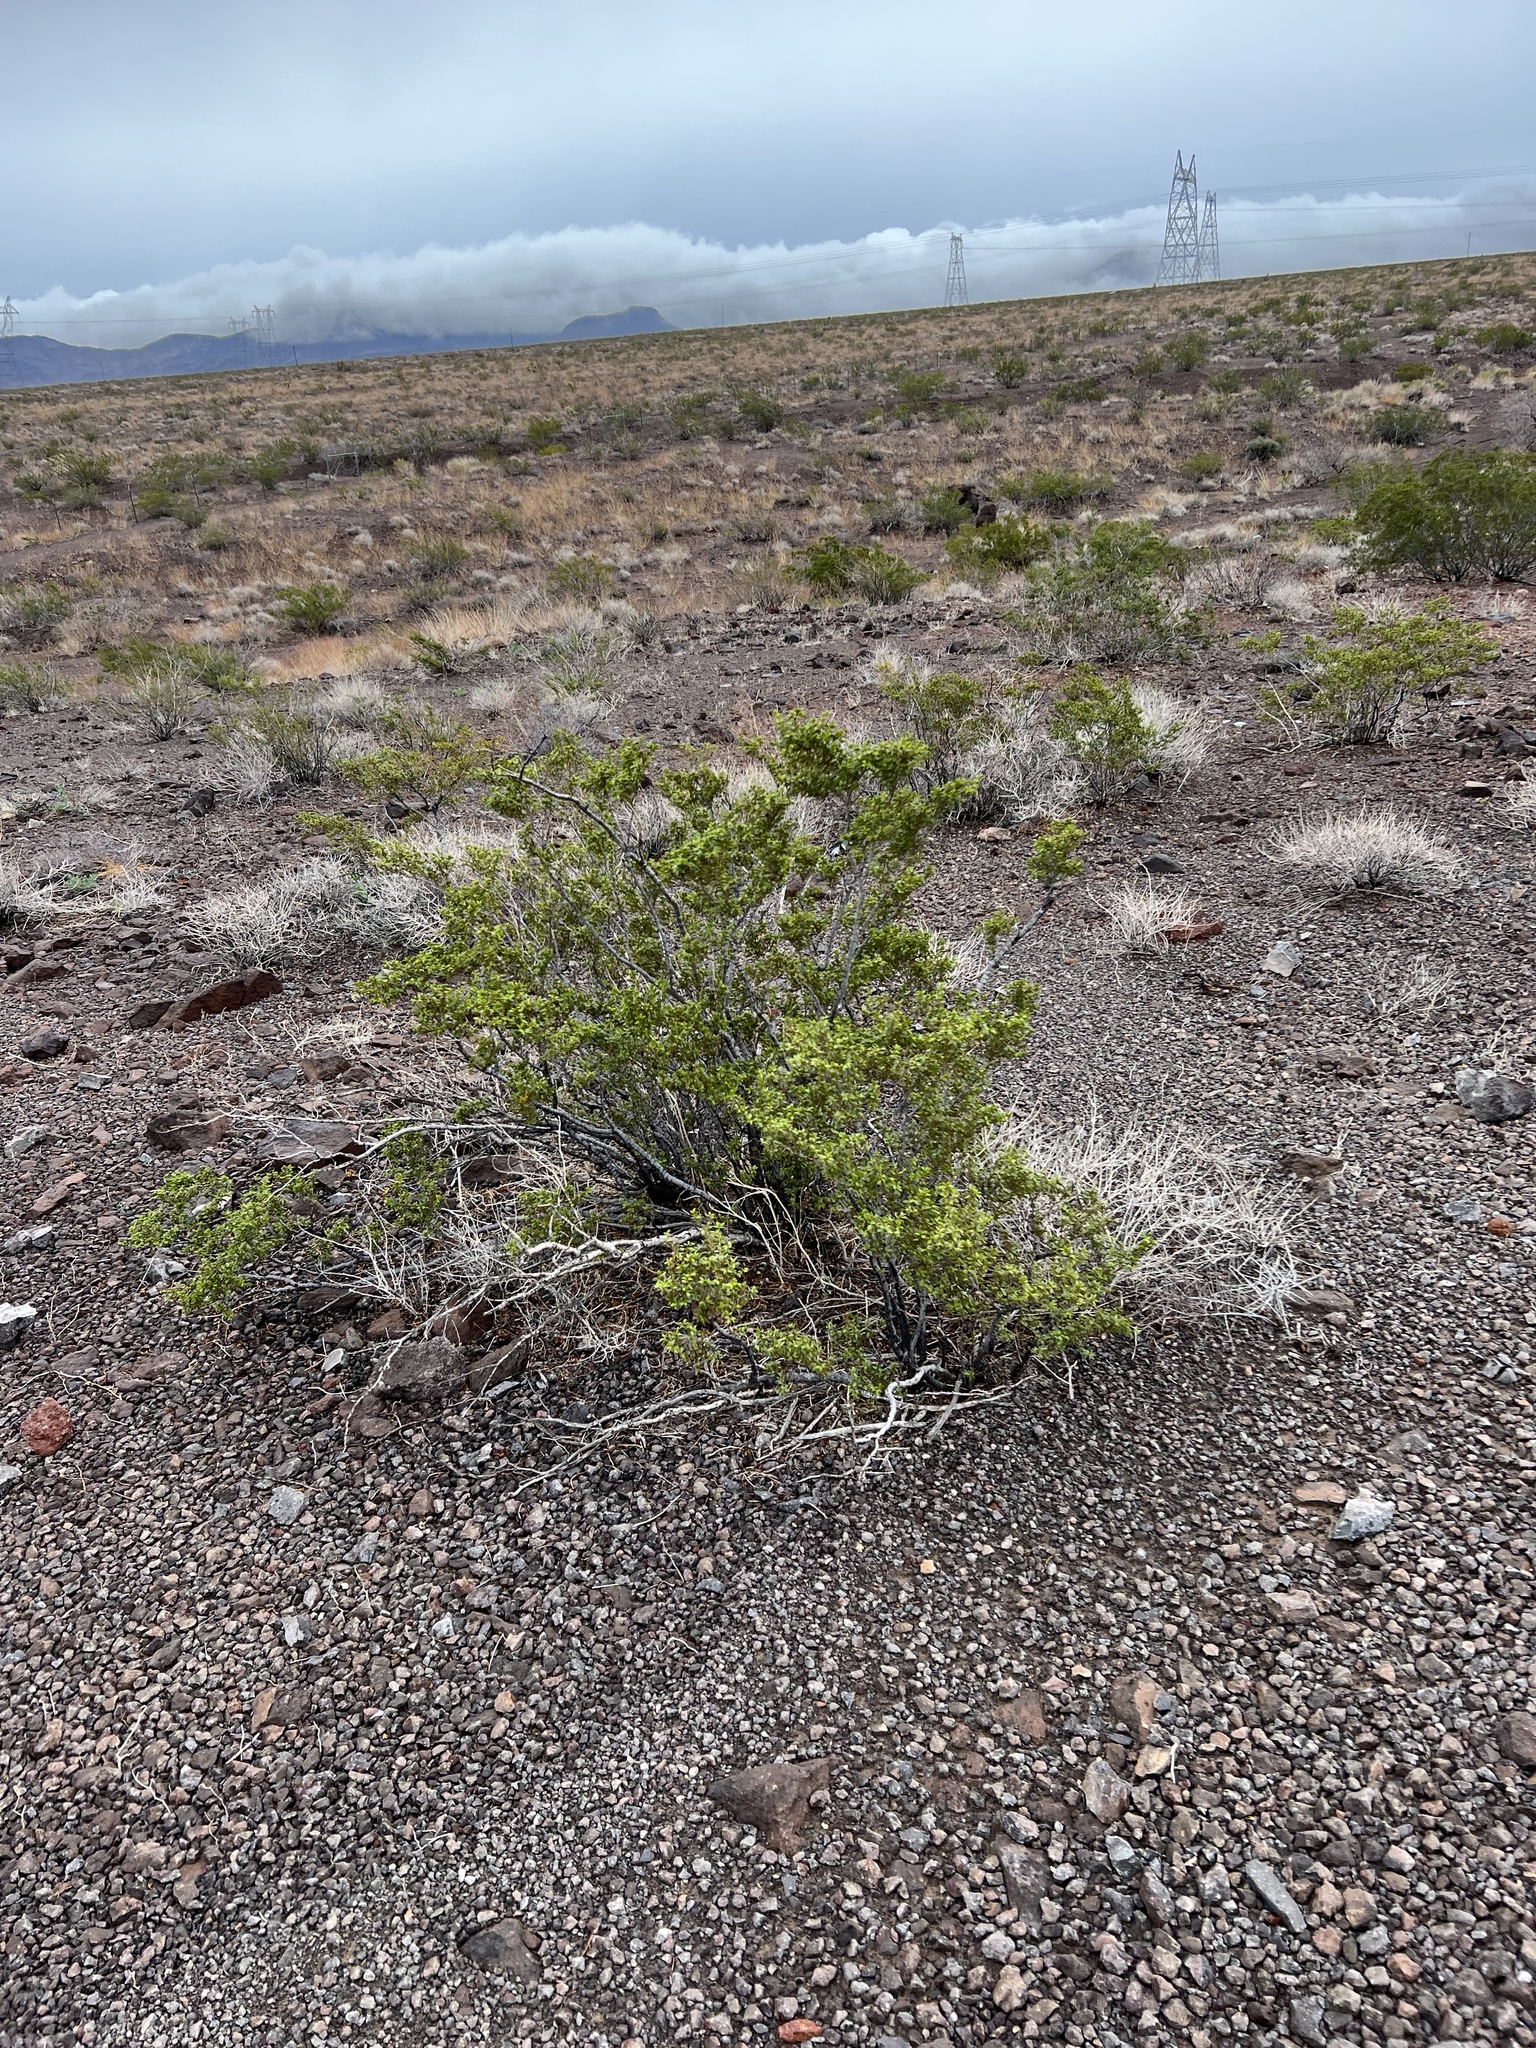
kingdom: Plantae
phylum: Tracheophyta
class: Magnoliopsida
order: Zygophyllales
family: Zygophyllaceae
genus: Larrea
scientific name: Larrea tridentata
